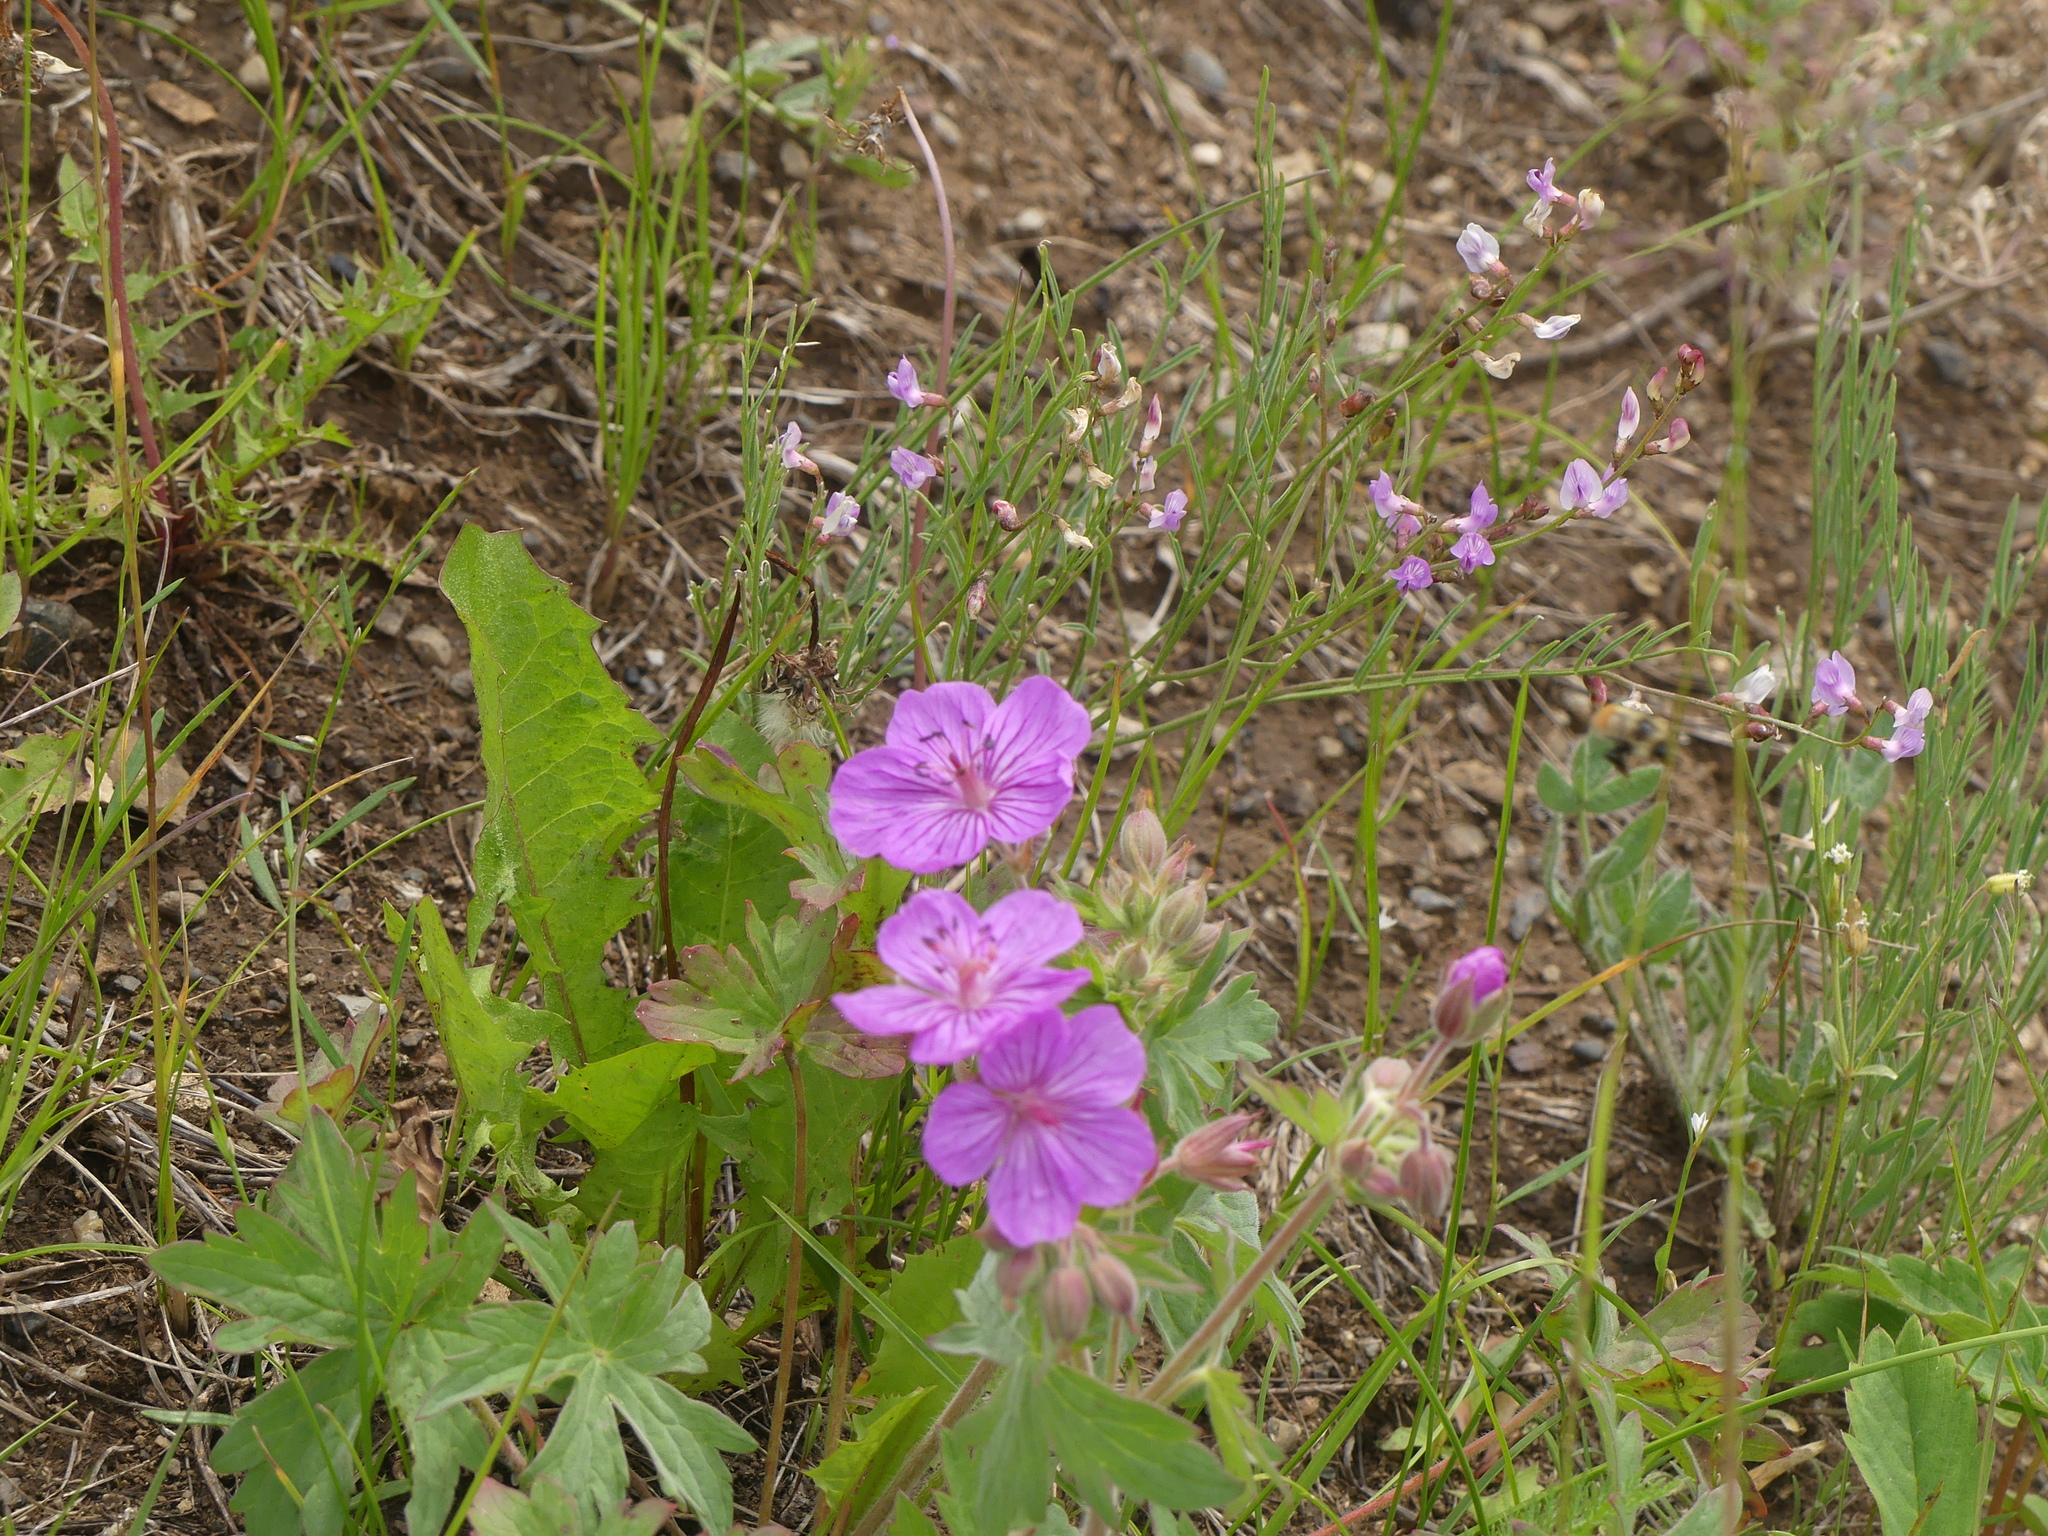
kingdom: Plantae
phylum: Tracheophyta
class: Magnoliopsida
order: Geraniales
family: Geraniaceae
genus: Geranium
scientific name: Geranium viscosissimum
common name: Purple geranium
